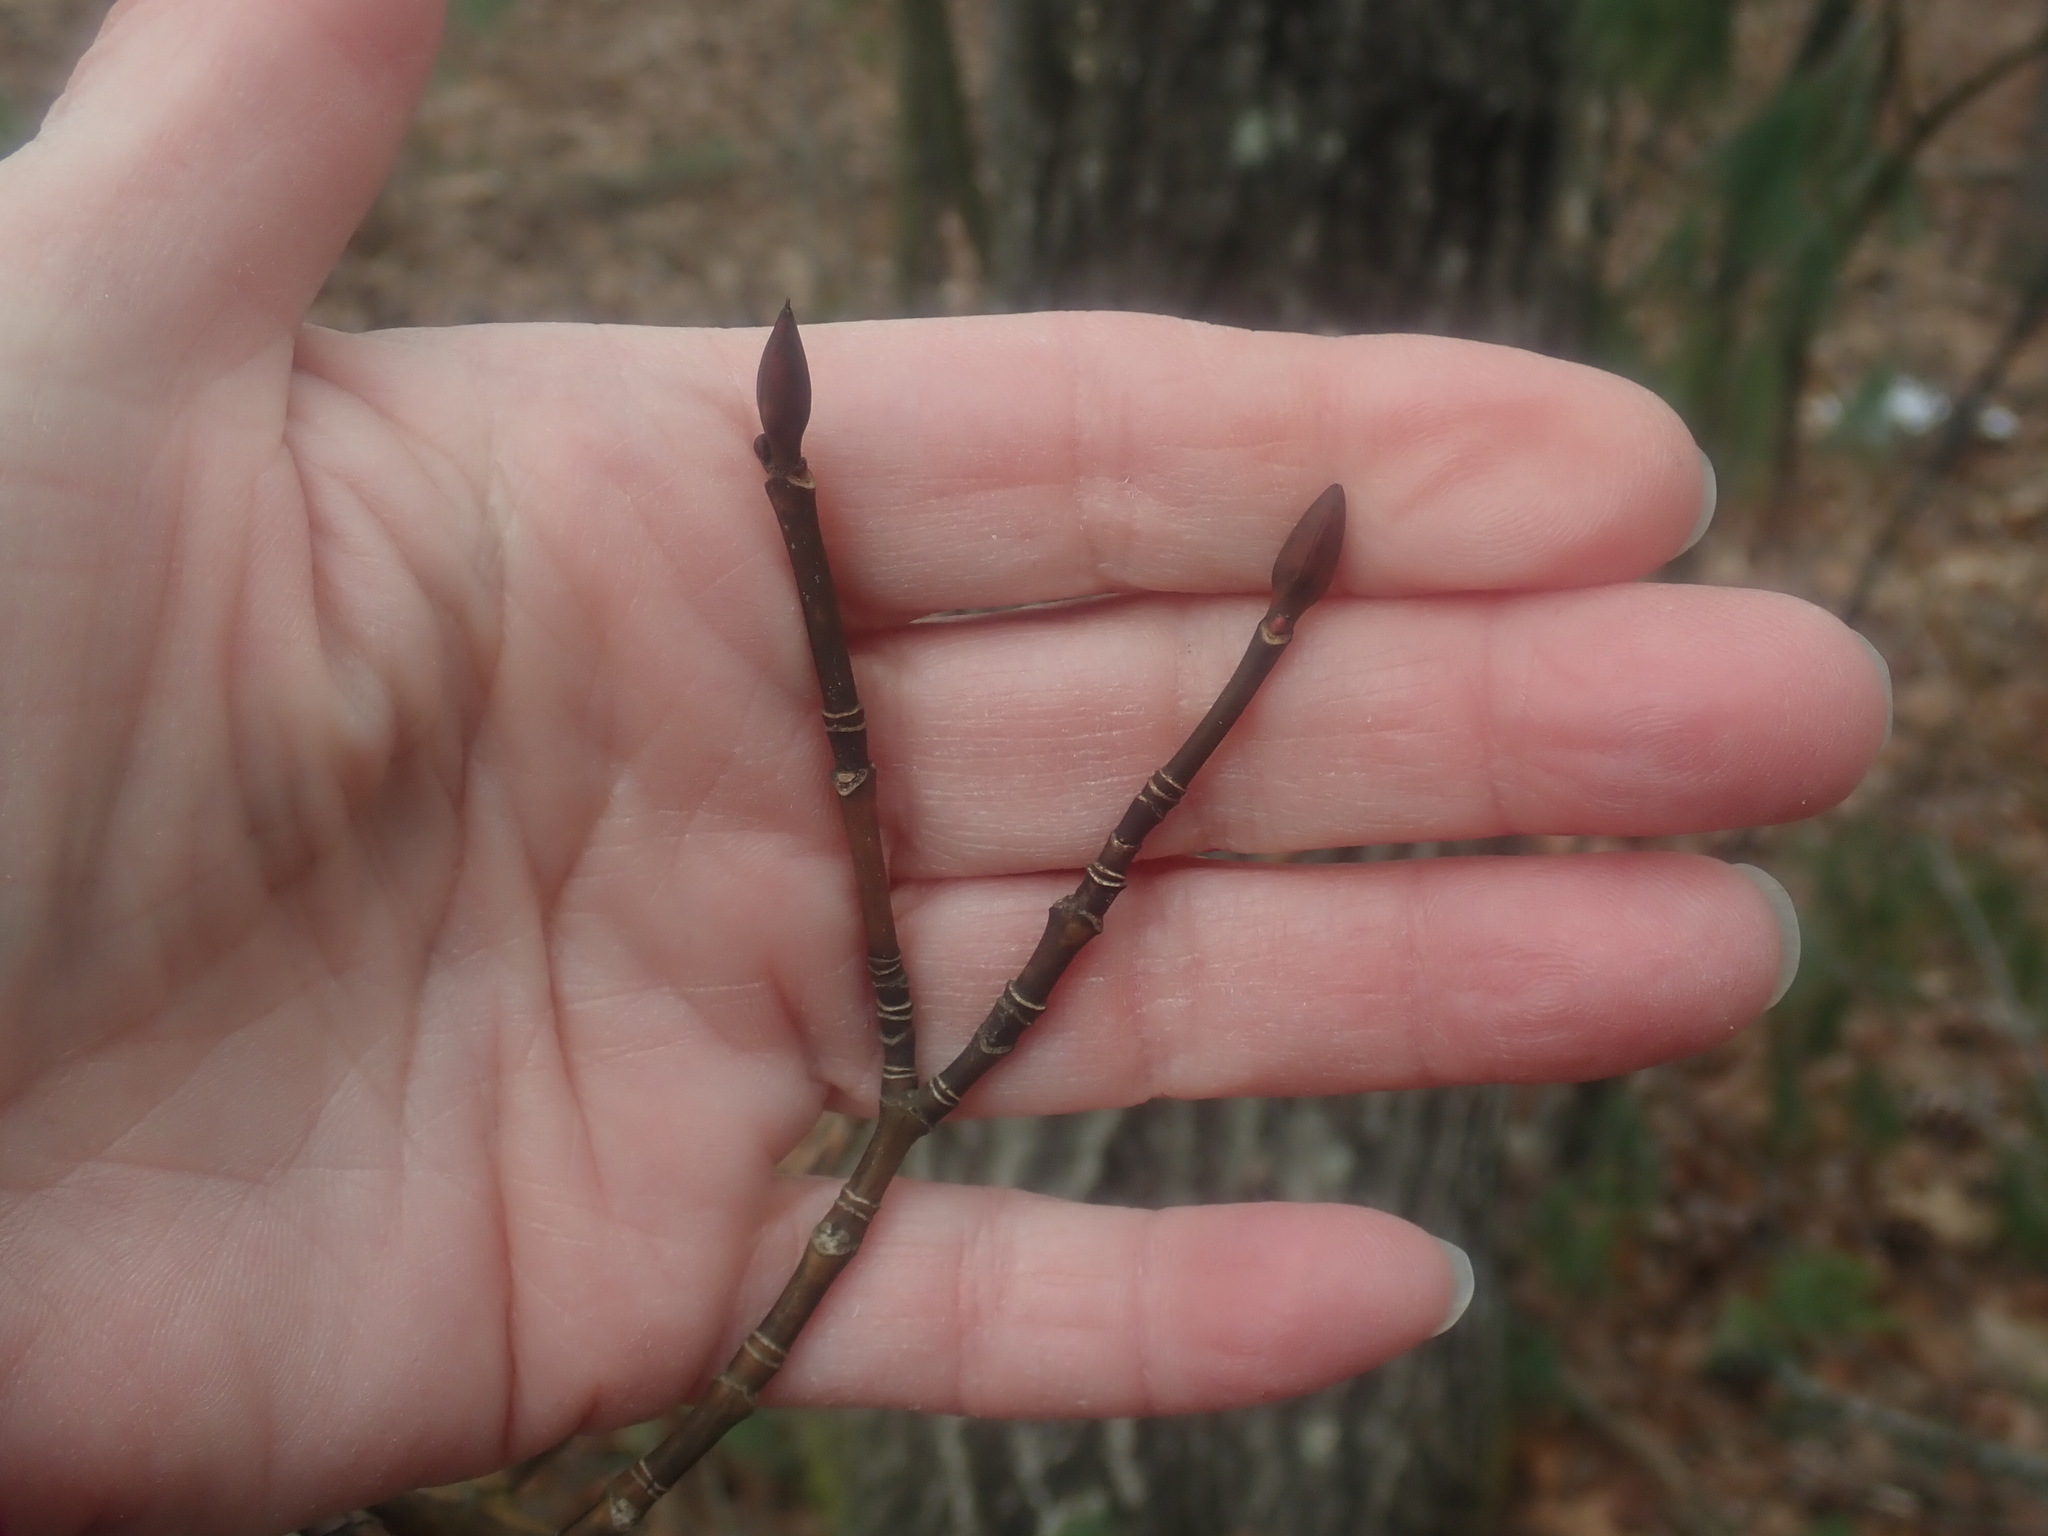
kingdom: Plantae
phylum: Tracheophyta
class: Magnoliopsida
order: Sapindales
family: Sapindaceae
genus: Acer
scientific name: Acer pensylvanicum
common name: Moosewood
